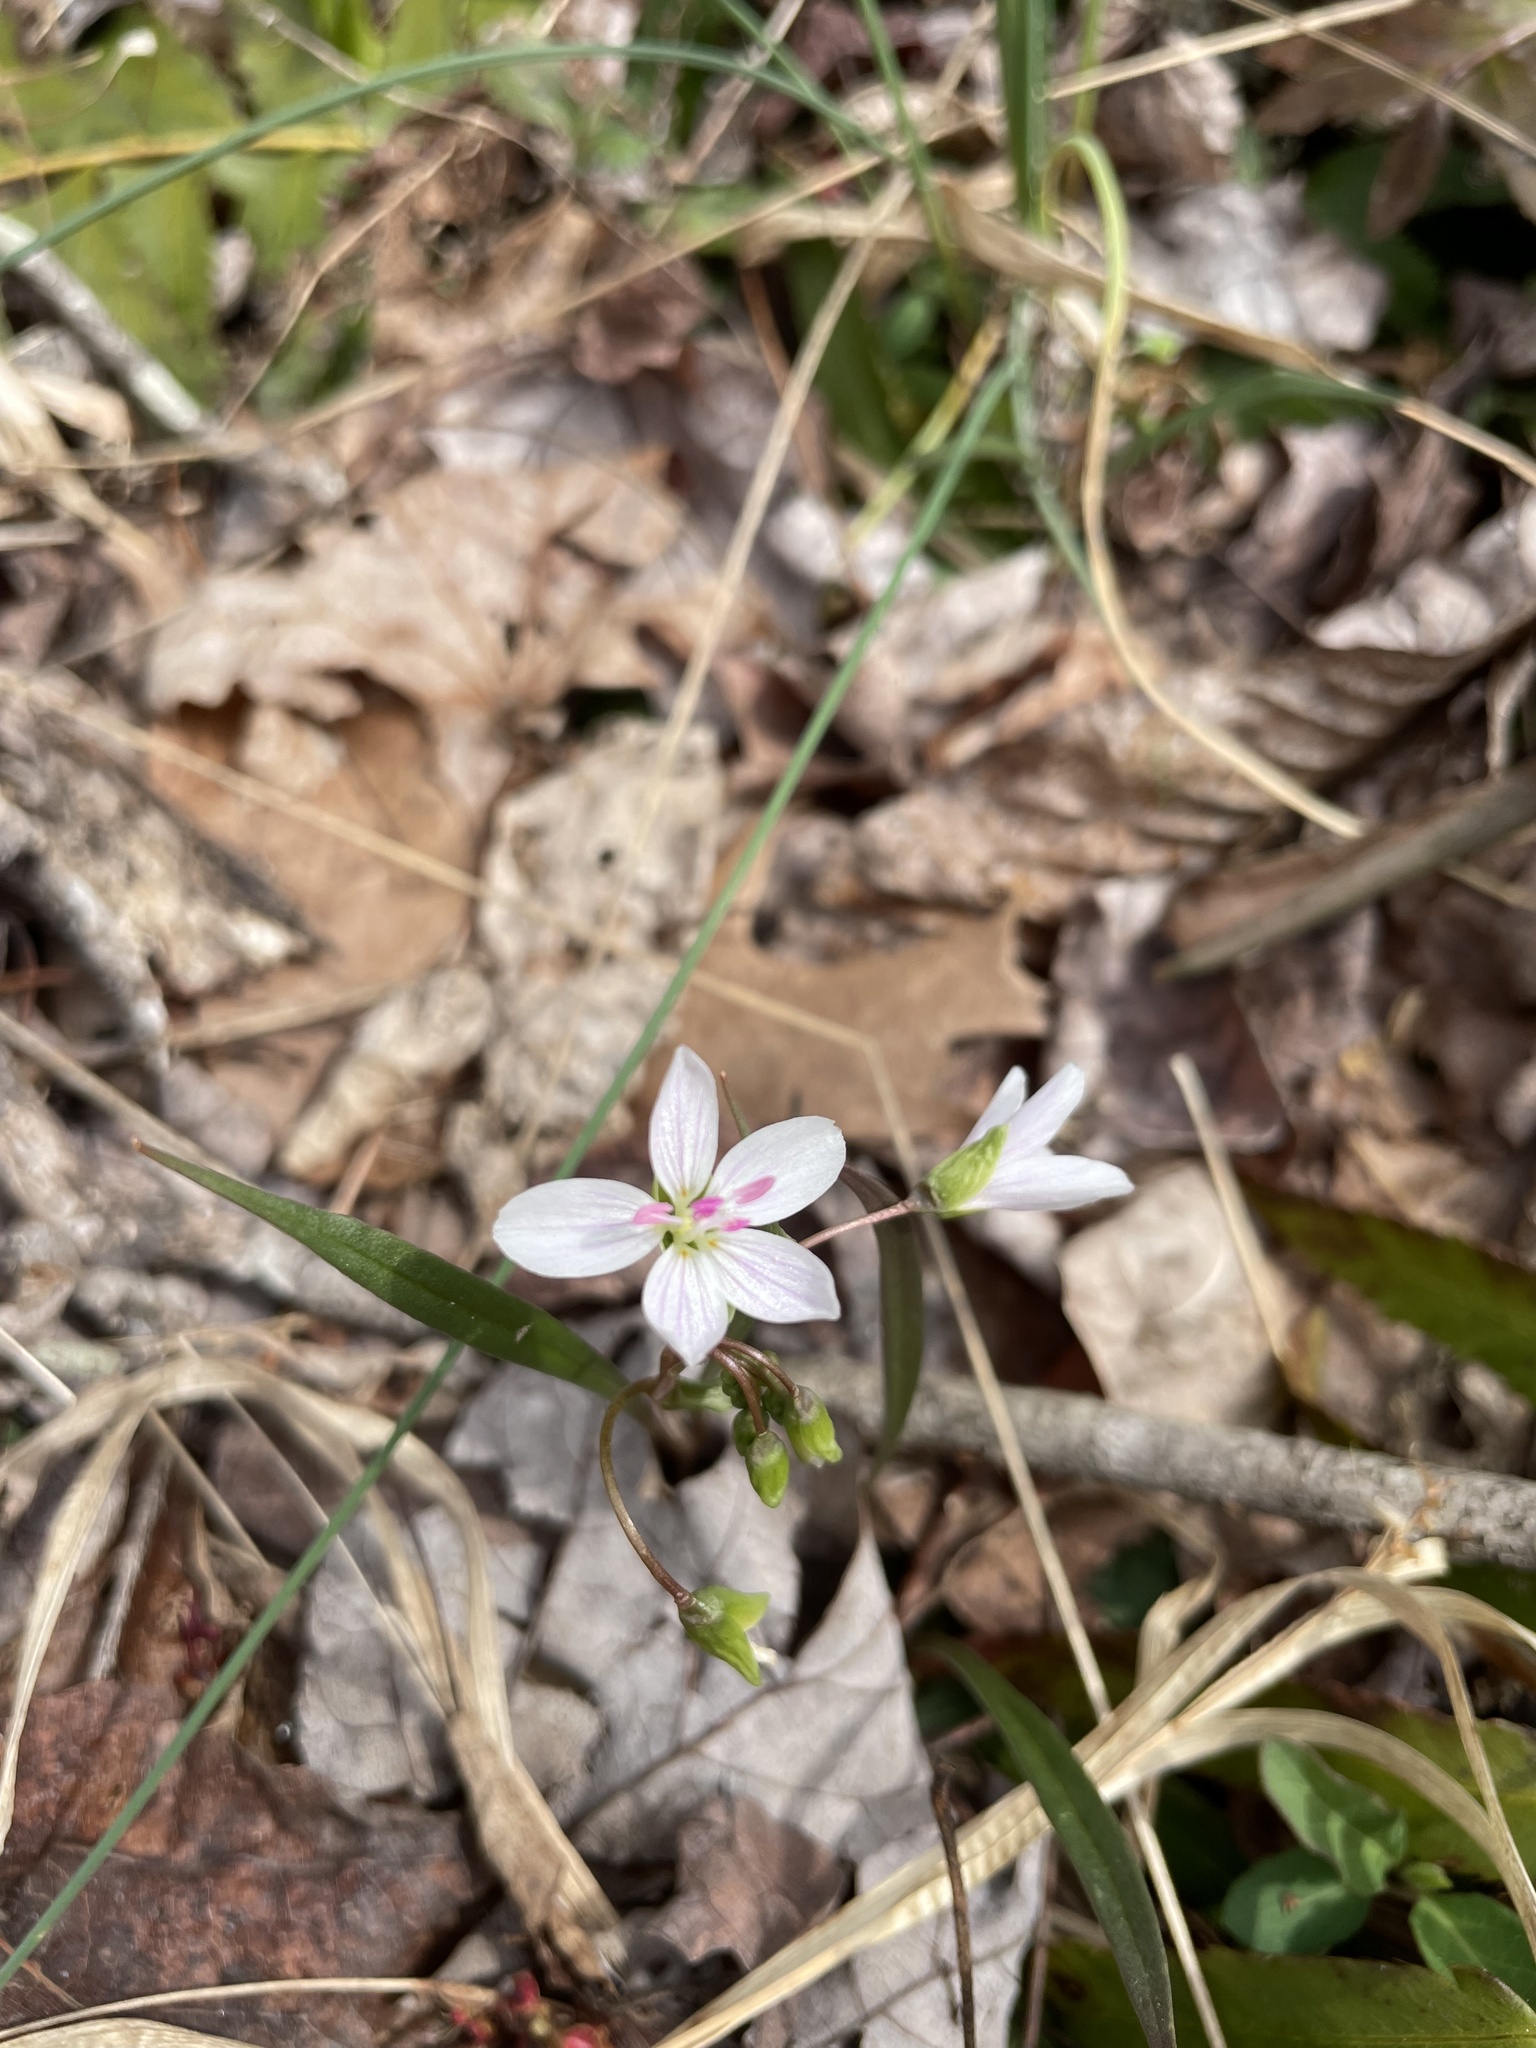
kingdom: Plantae
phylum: Tracheophyta
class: Magnoliopsida
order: Caryophyllales
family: Montiaceae
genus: Claytonia
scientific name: Claytonia virginica
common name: Virginia springbeauty
